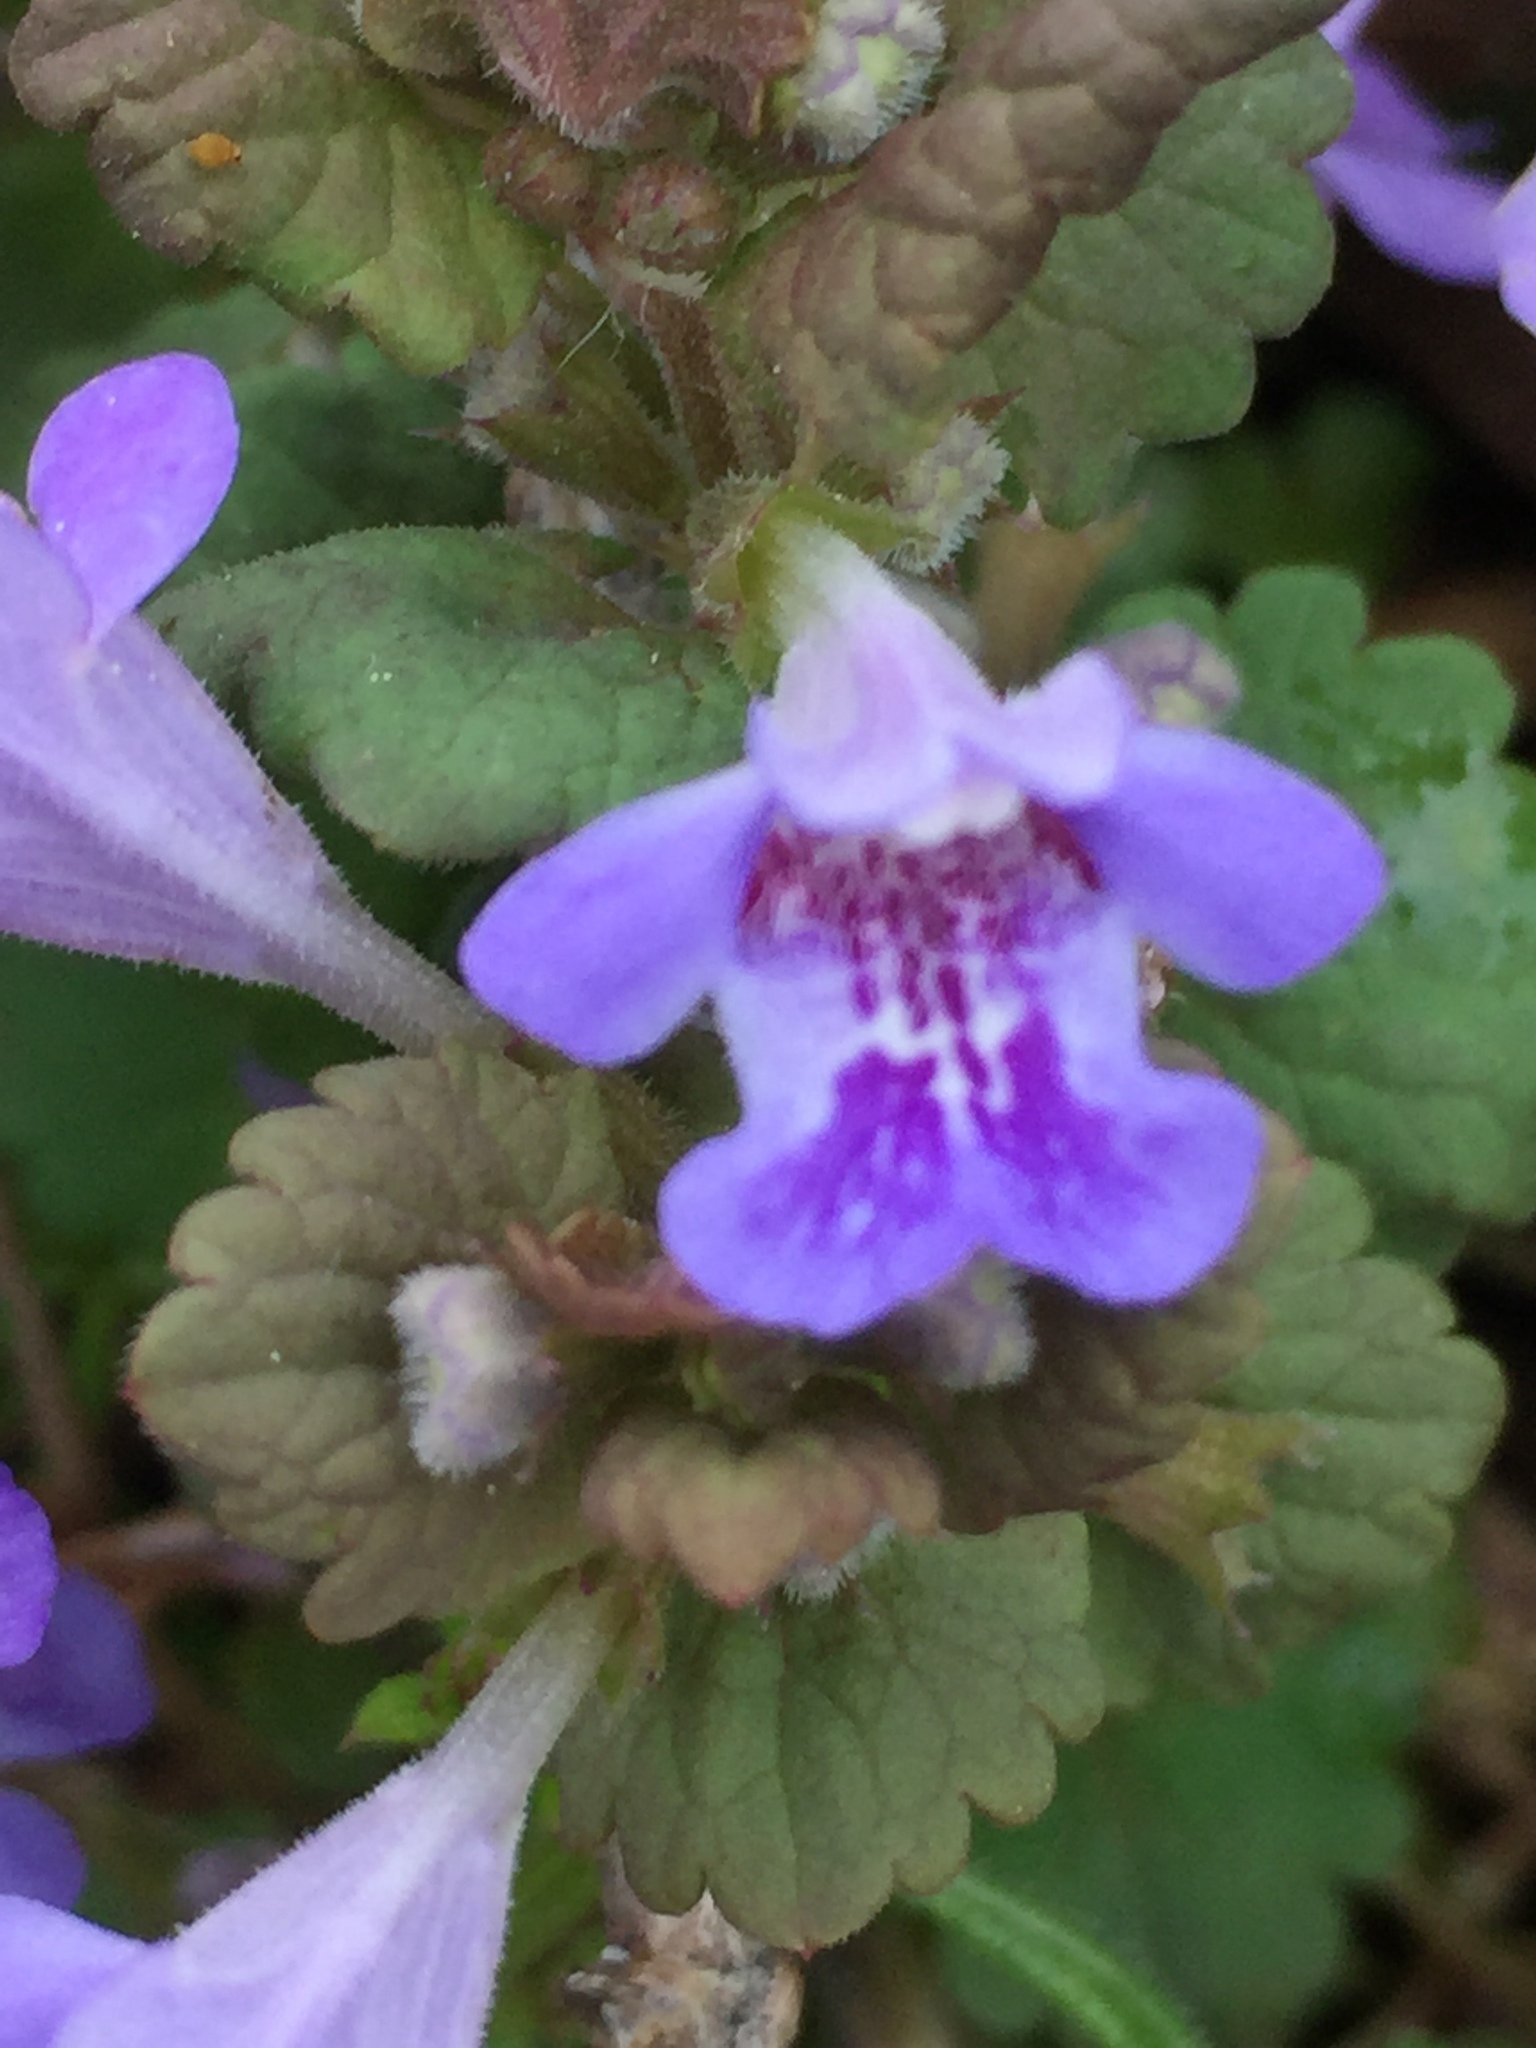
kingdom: Plantae
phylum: Tracheophyta
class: Magnoliopsida
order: Lamiales
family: Lamiaceae
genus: Glechoma
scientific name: Glechoma hederacea
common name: Ground ivy
